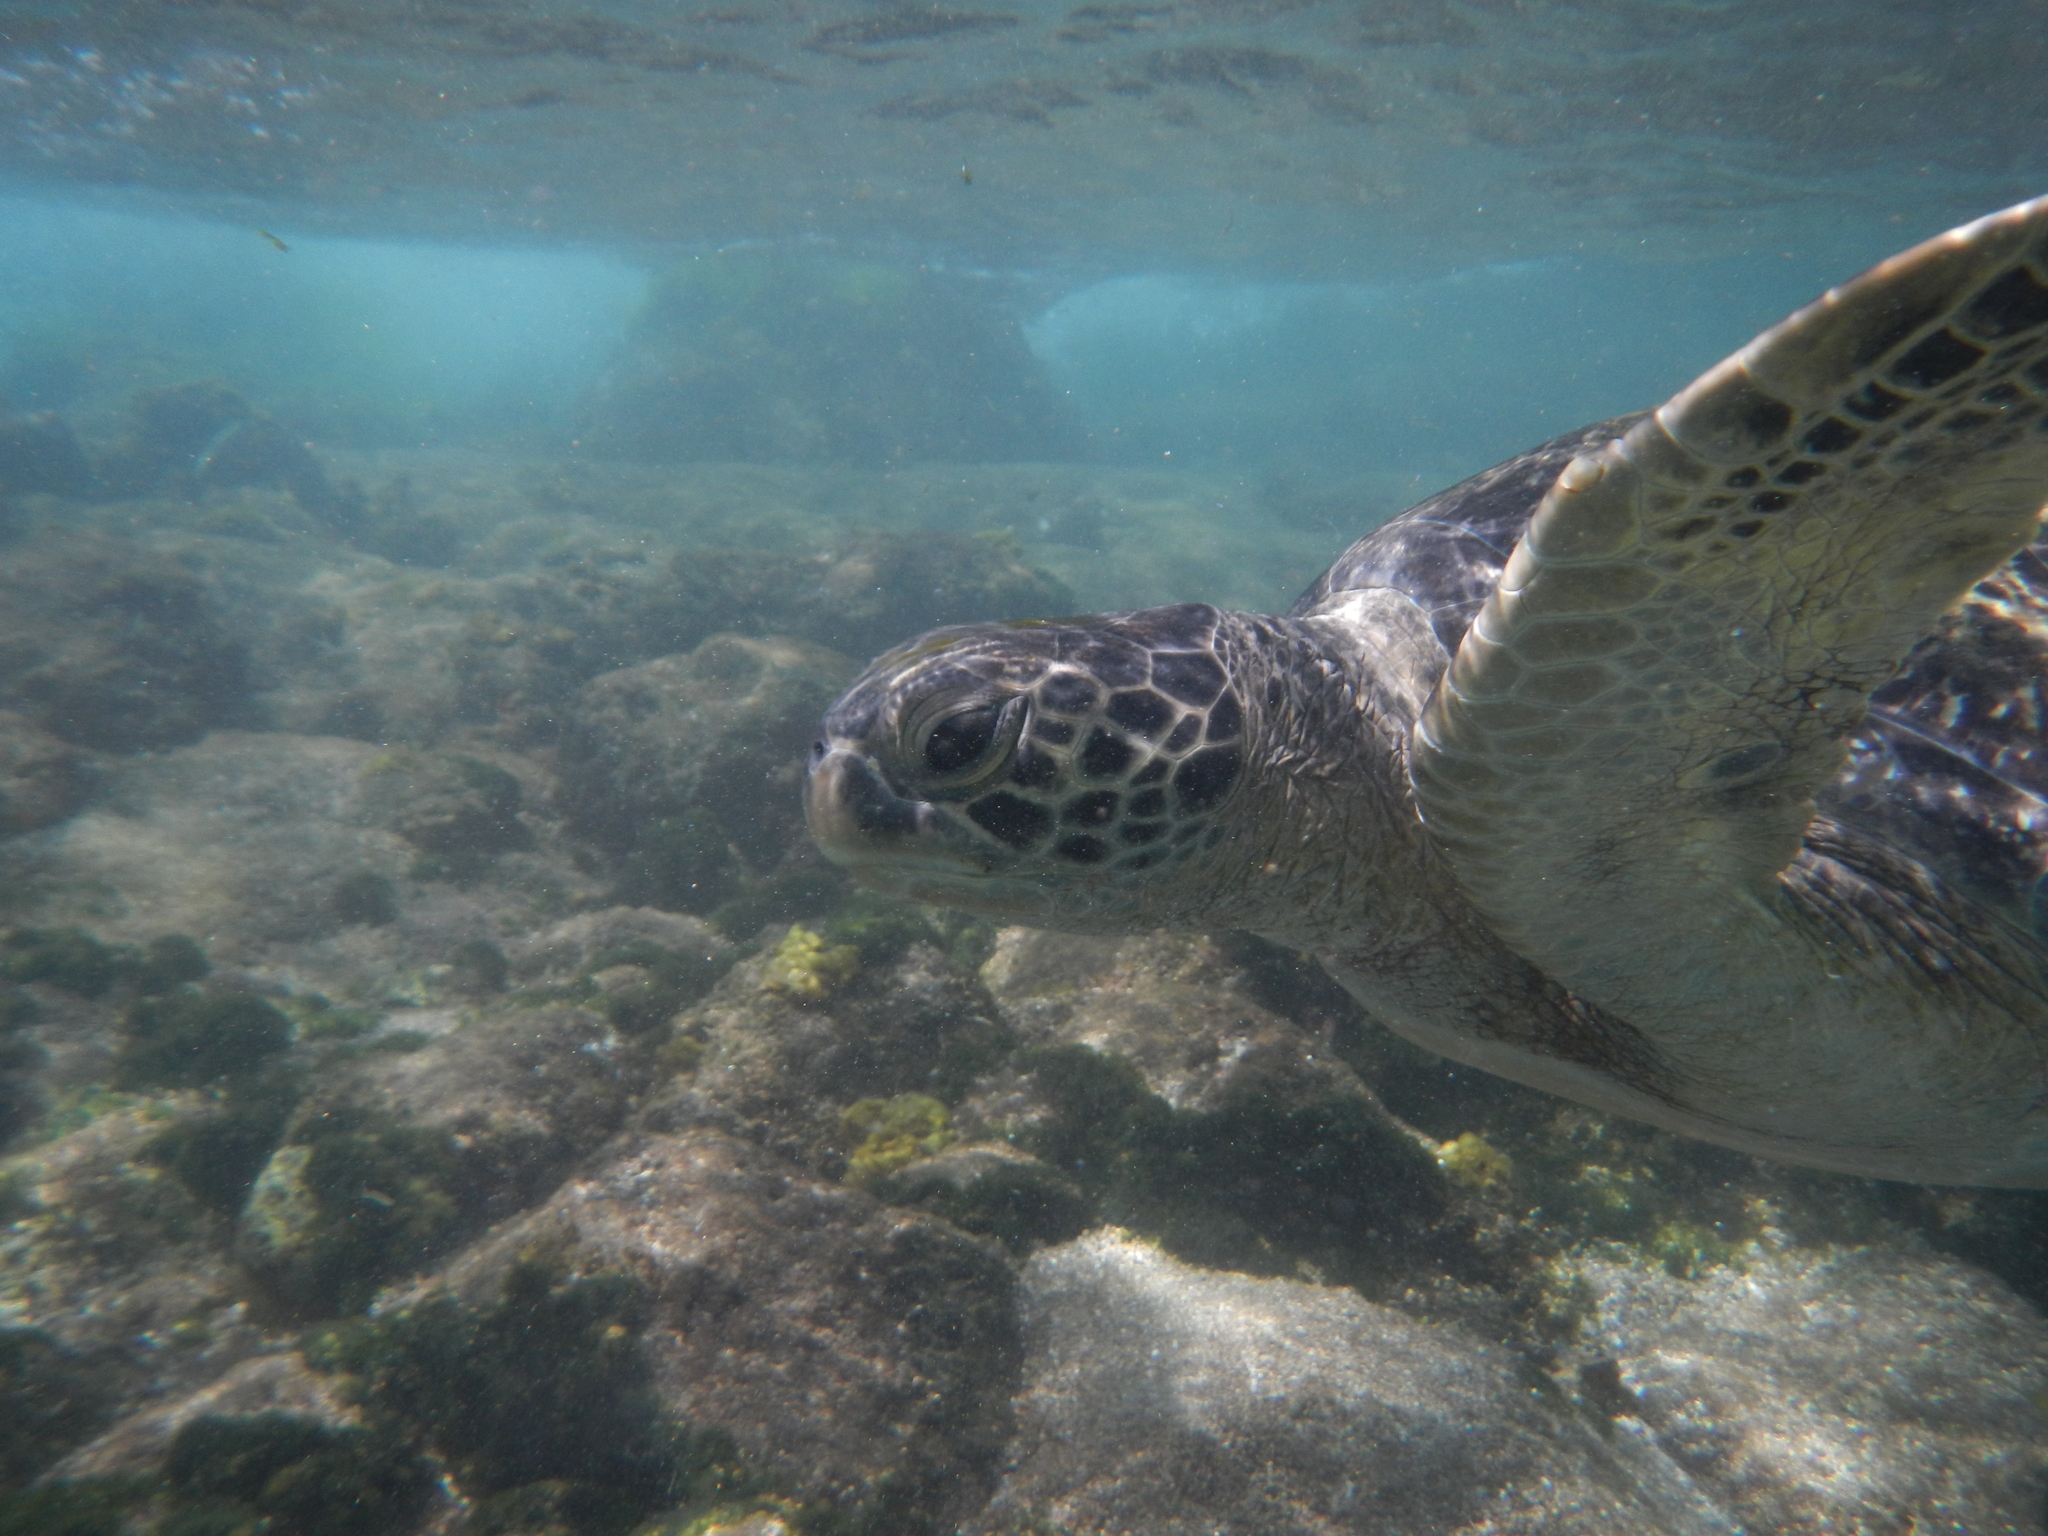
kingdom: Animalia
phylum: Chordata
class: Testudines
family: Cheloniidae
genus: Chelonia
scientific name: Chelonia mydas
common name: Green turtle
